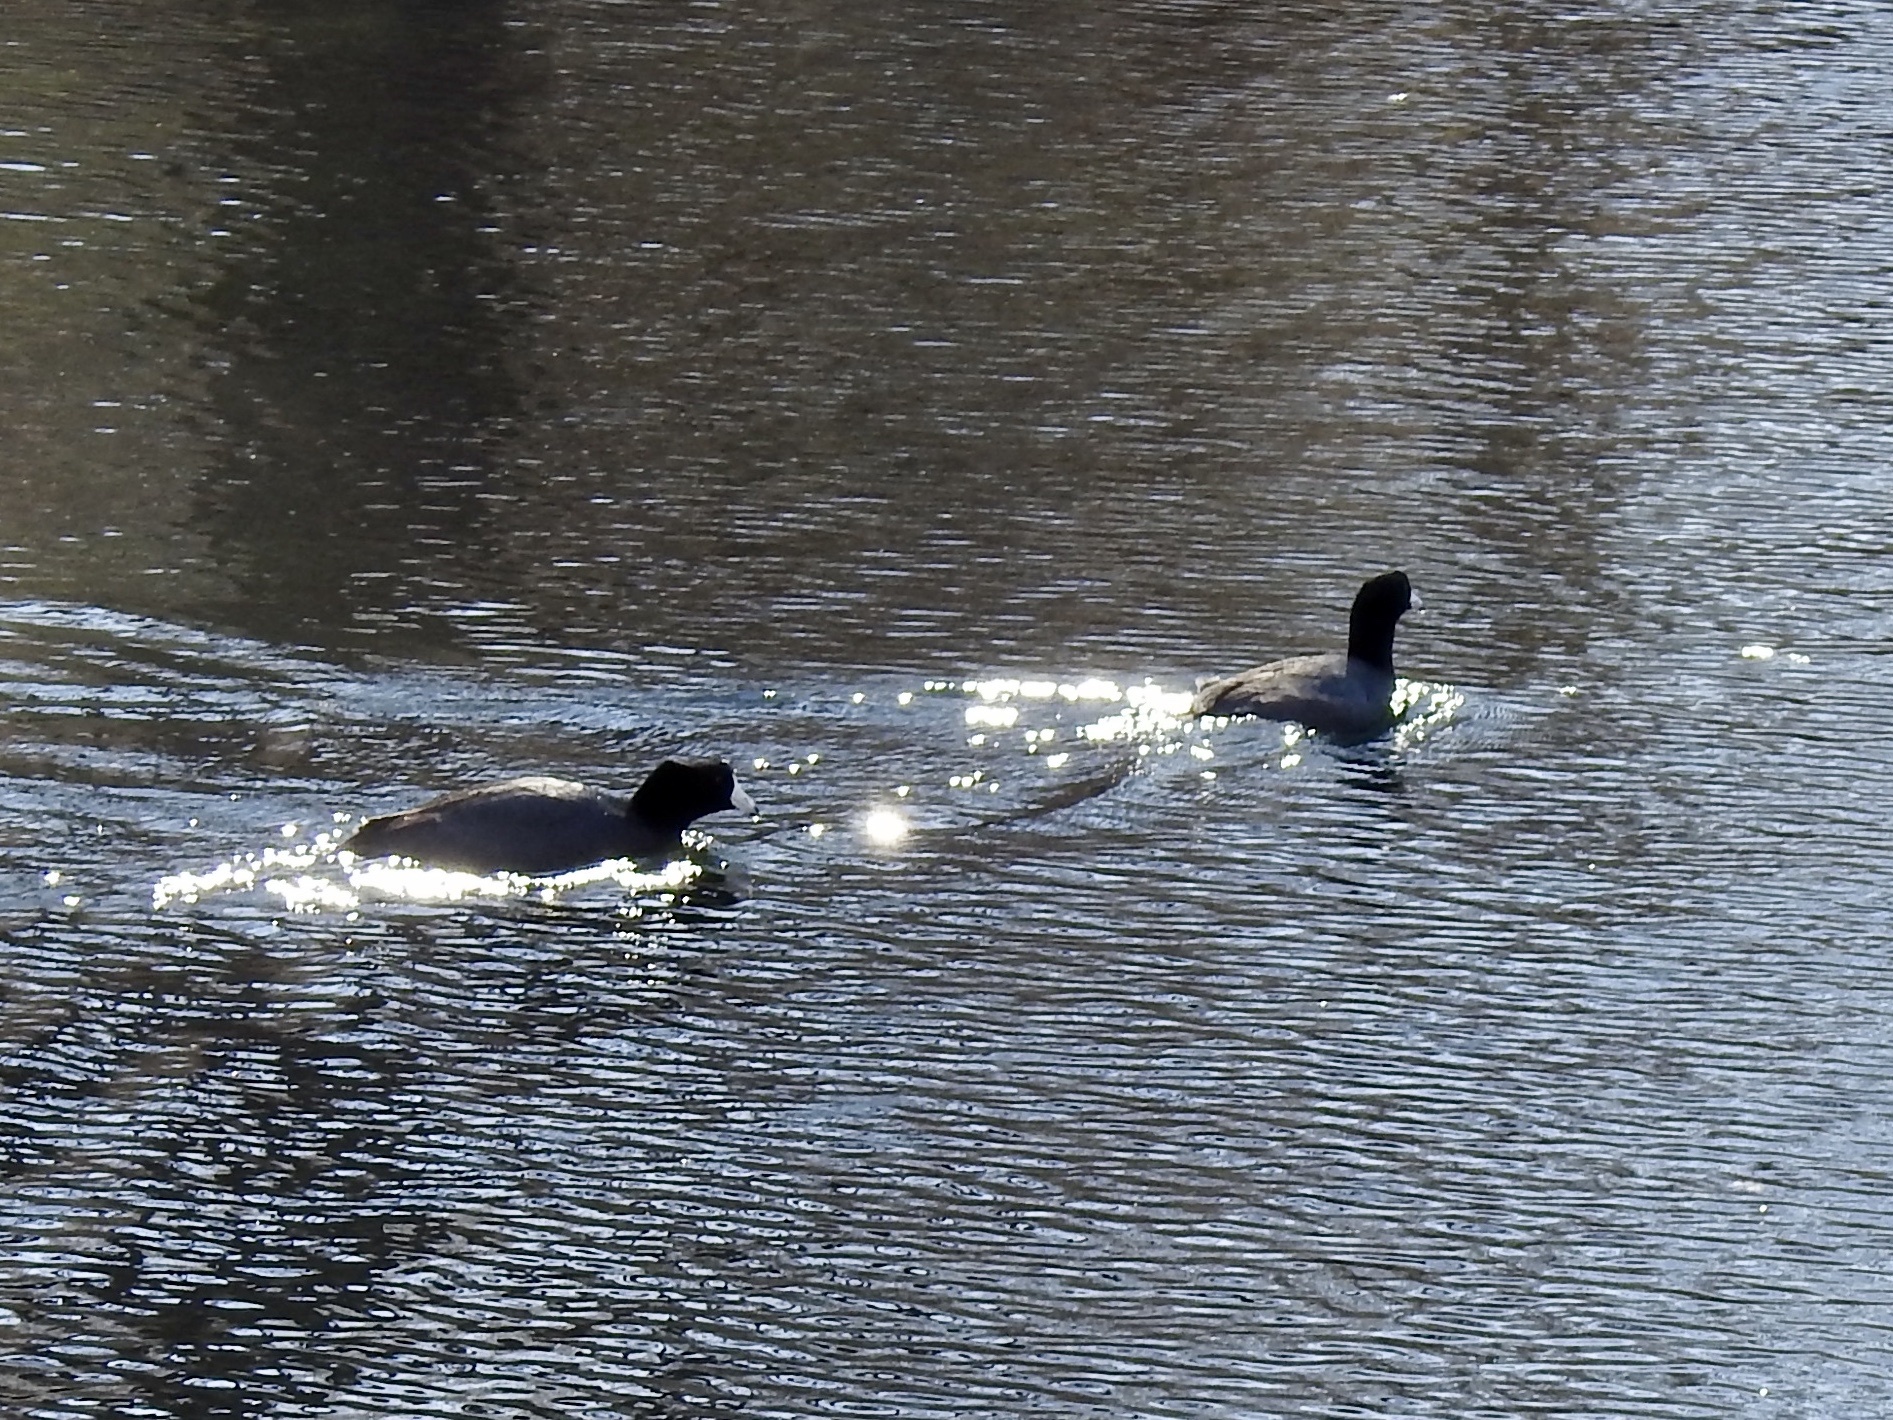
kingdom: Animalia
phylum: Chordata
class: Aves
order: Gruiformes
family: Rallidae
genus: Fulica
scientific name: Fulica americana
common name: American coot
